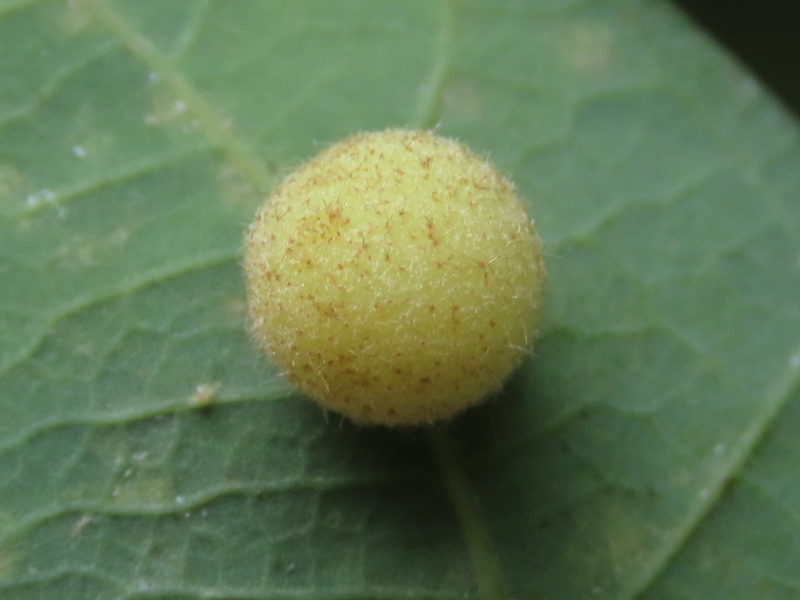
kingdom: Animalia
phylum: Arthropoda
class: Insecta
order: Hymenoptera
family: Cynipidae
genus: Philonix
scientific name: Philonix fulvicollis
